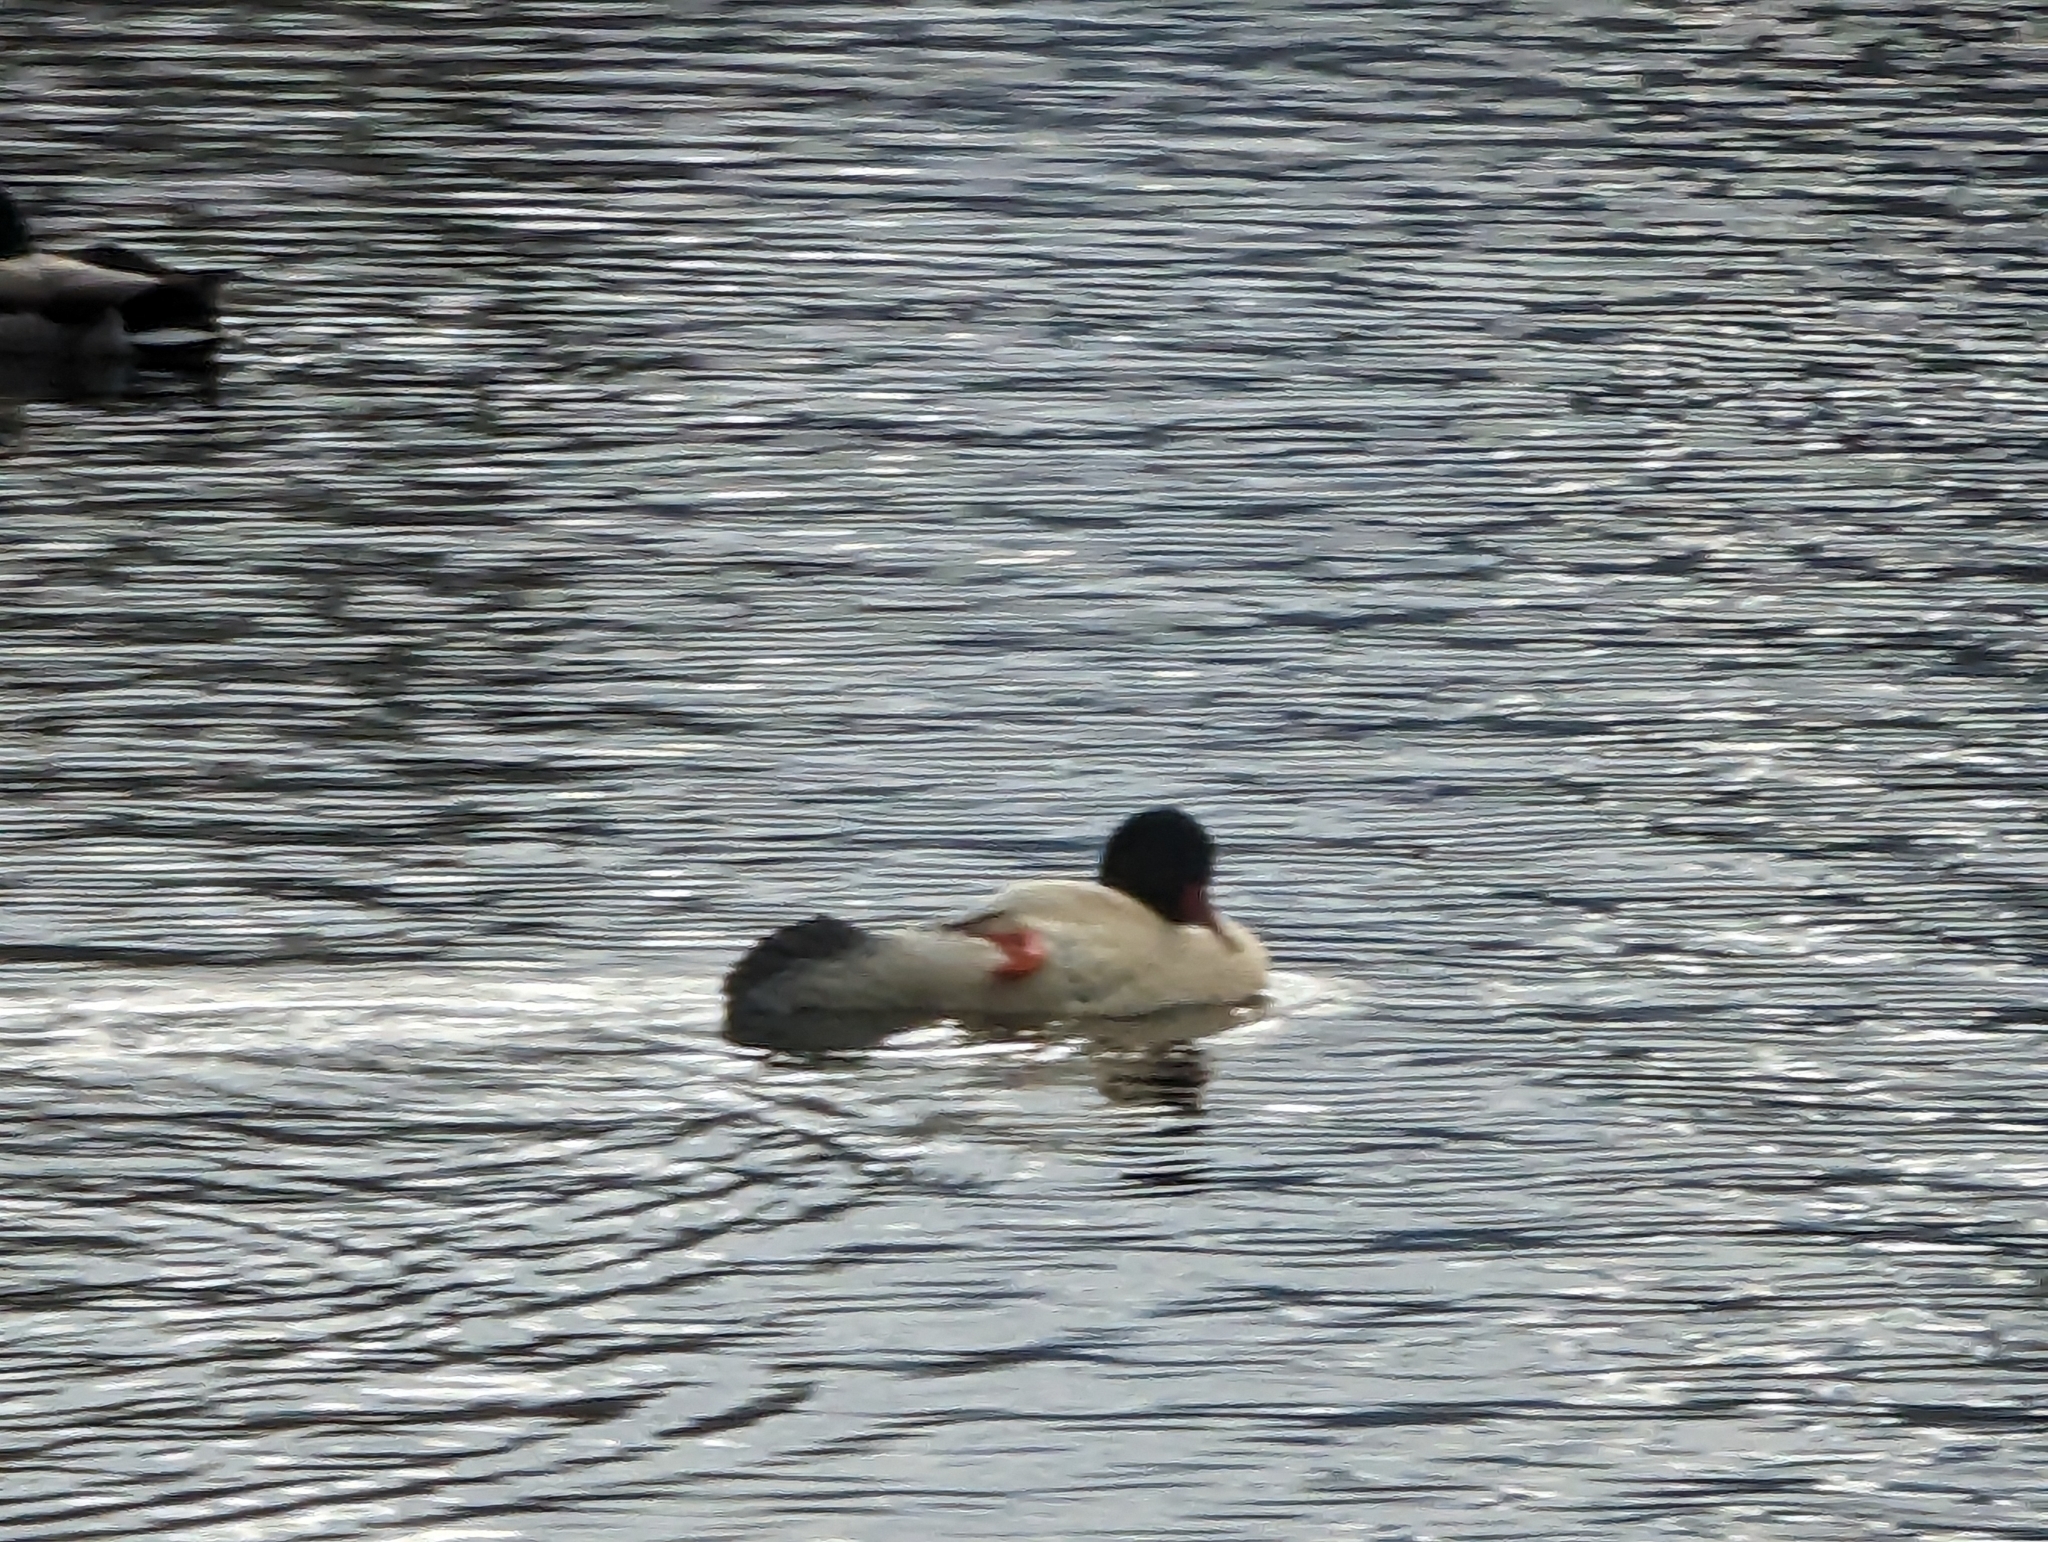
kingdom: Animalia
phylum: Chordata
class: Aves
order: Anseriformes
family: Anatidae
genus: Mergus
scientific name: Mergus merganser
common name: Common merganser
